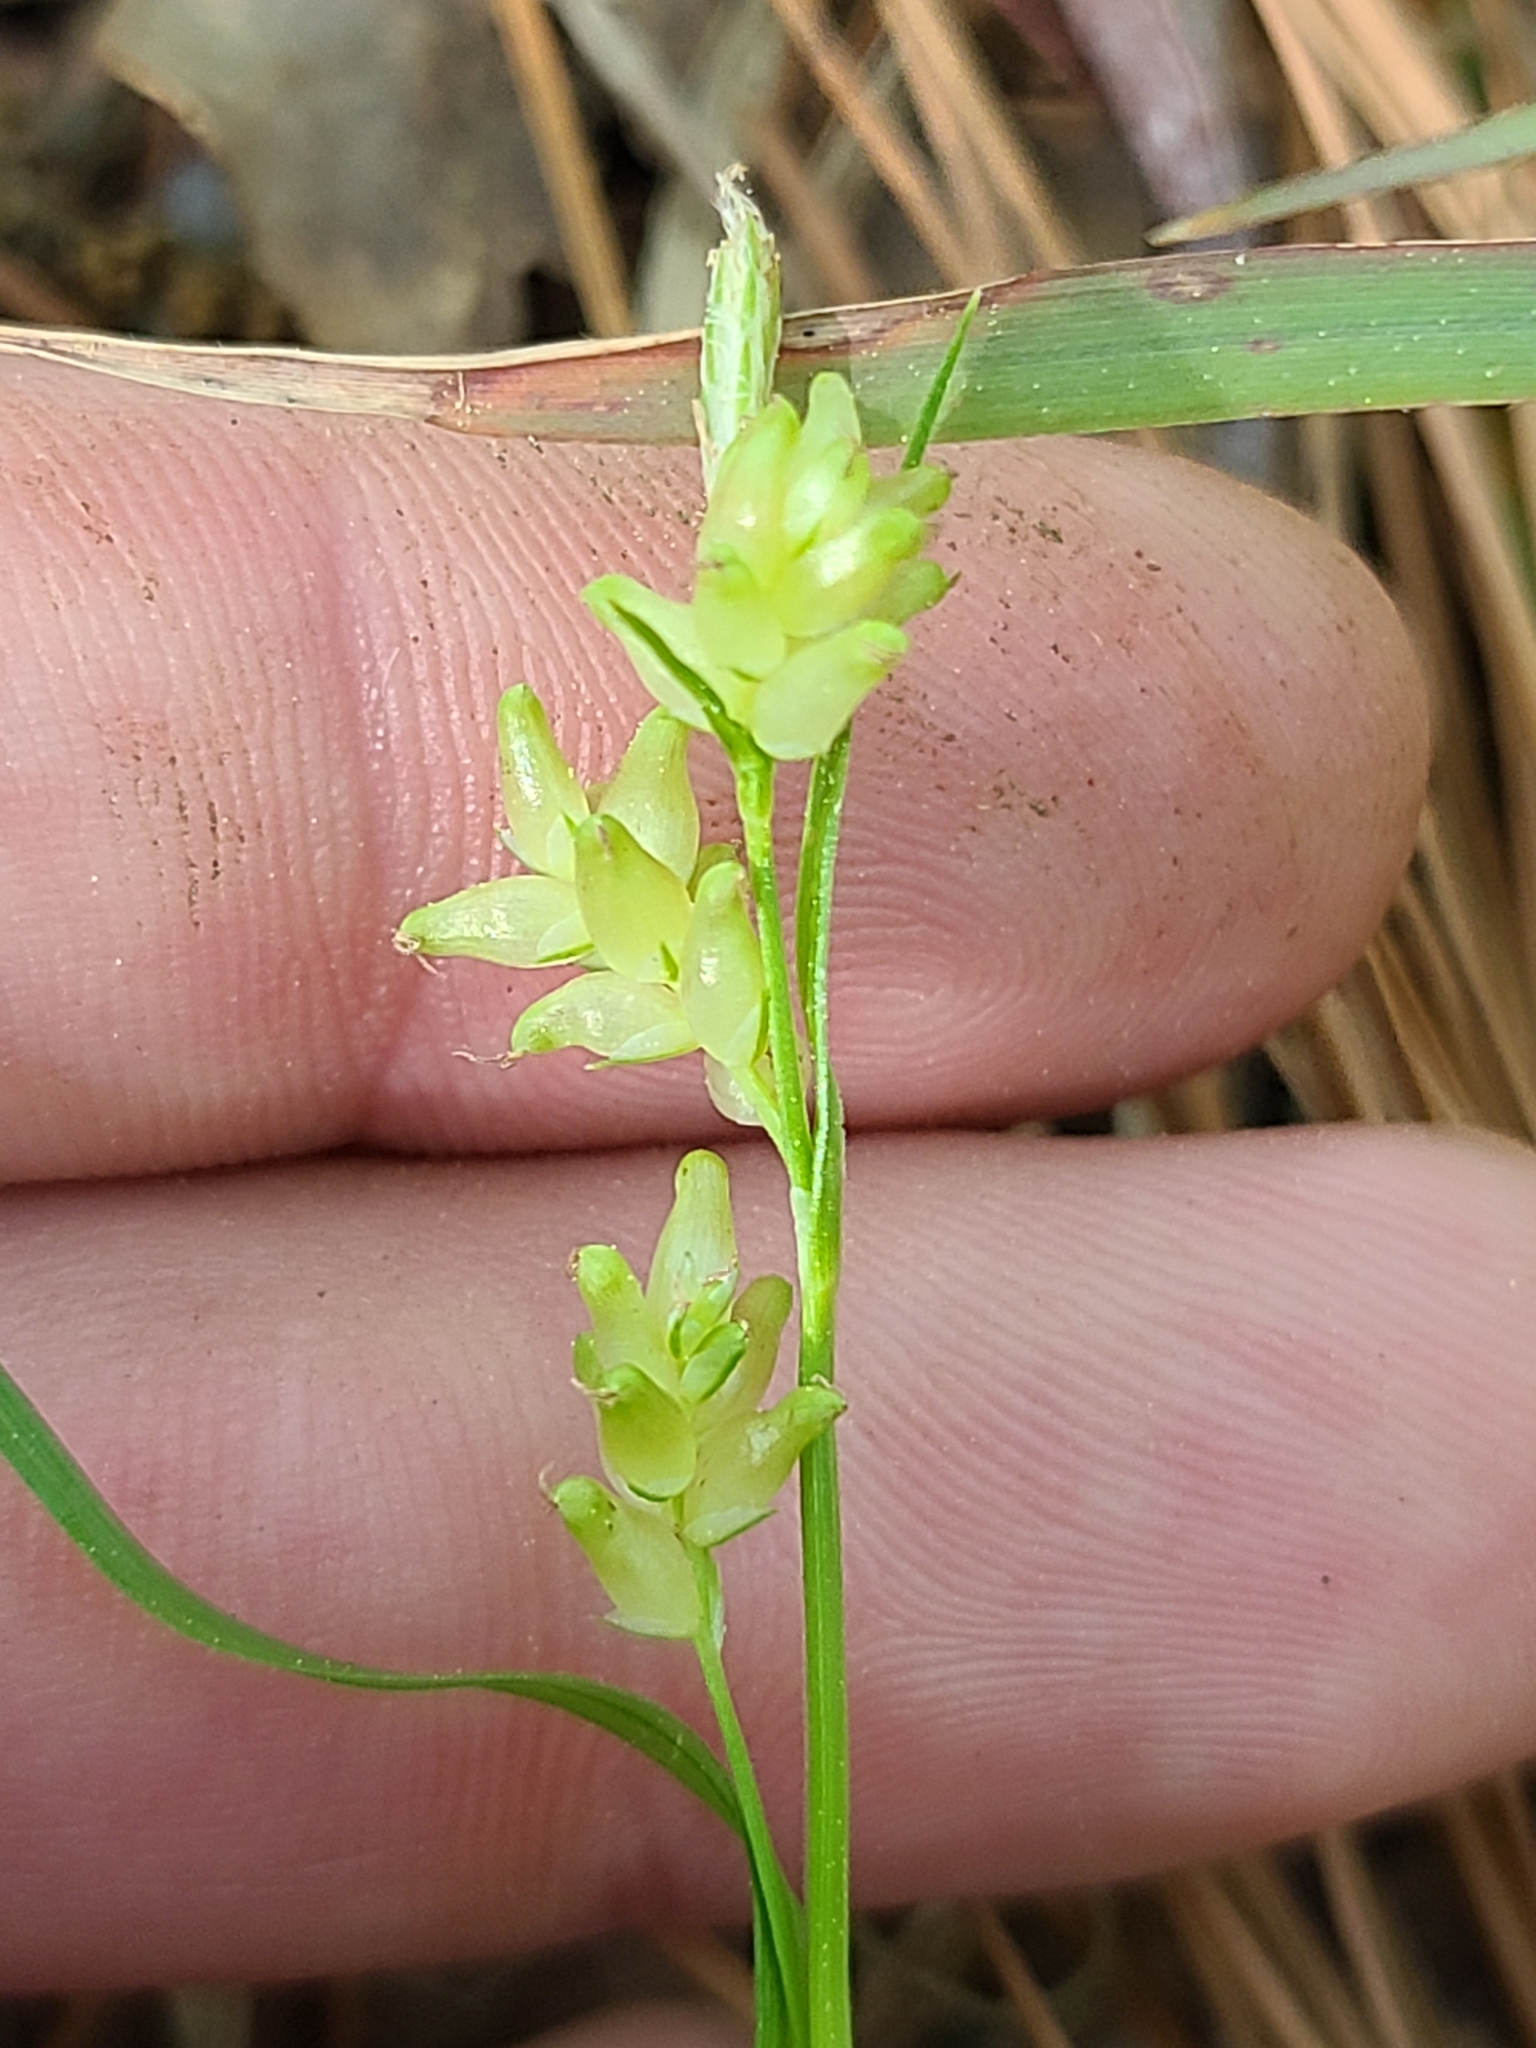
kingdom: Plantae
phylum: Tracheophyta
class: Liliopsida
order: Poales
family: Cyperaceae
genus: Carex
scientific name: Carex blanda
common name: Bland sedge
